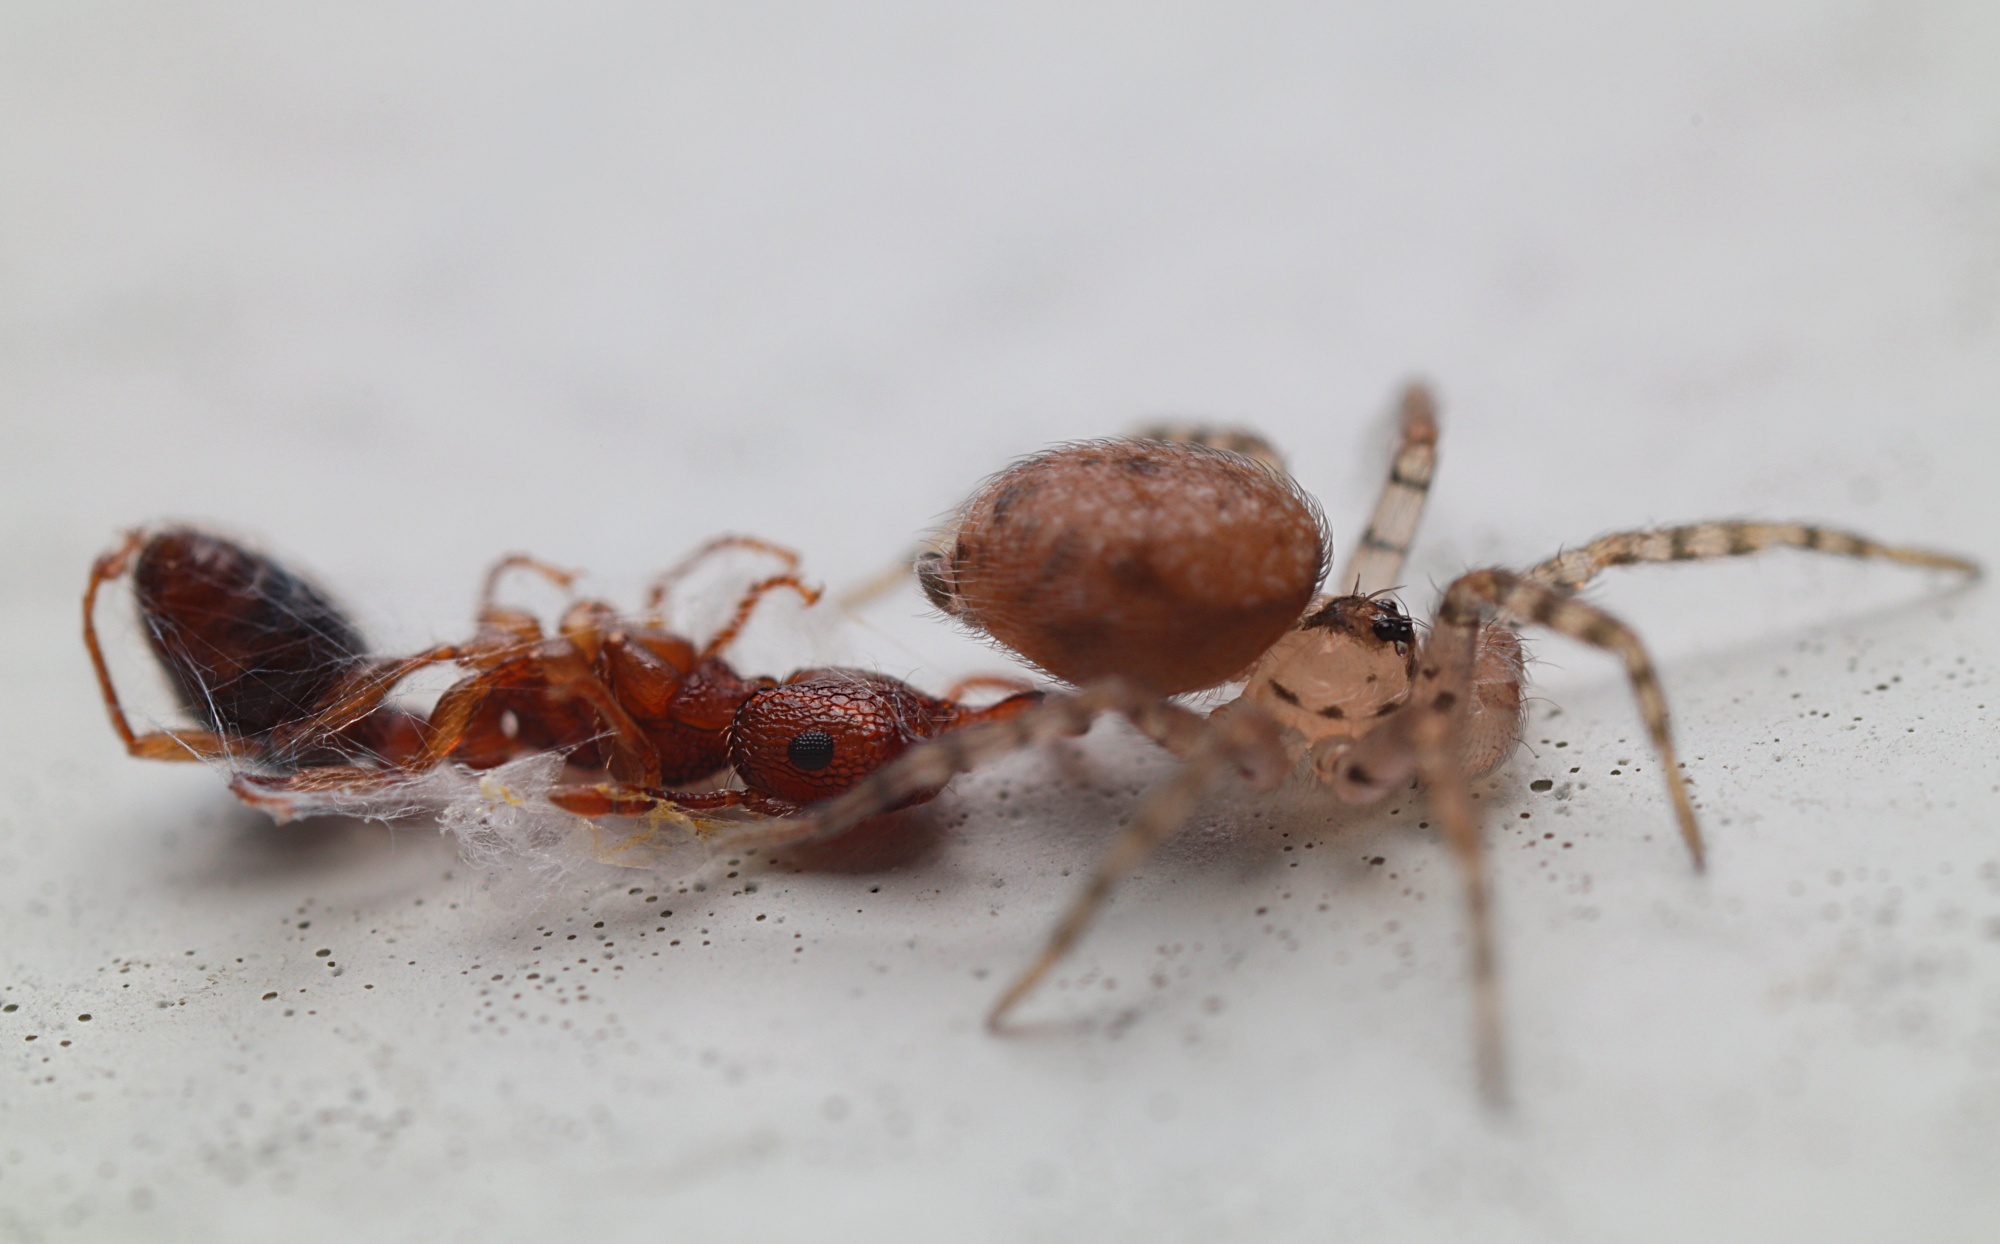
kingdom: Animalia
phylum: Arthropoda
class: Arachnida
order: Araneae
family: Oecobiidae
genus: Oecobius
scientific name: Oecobius navus
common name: Flatmesh weaver
